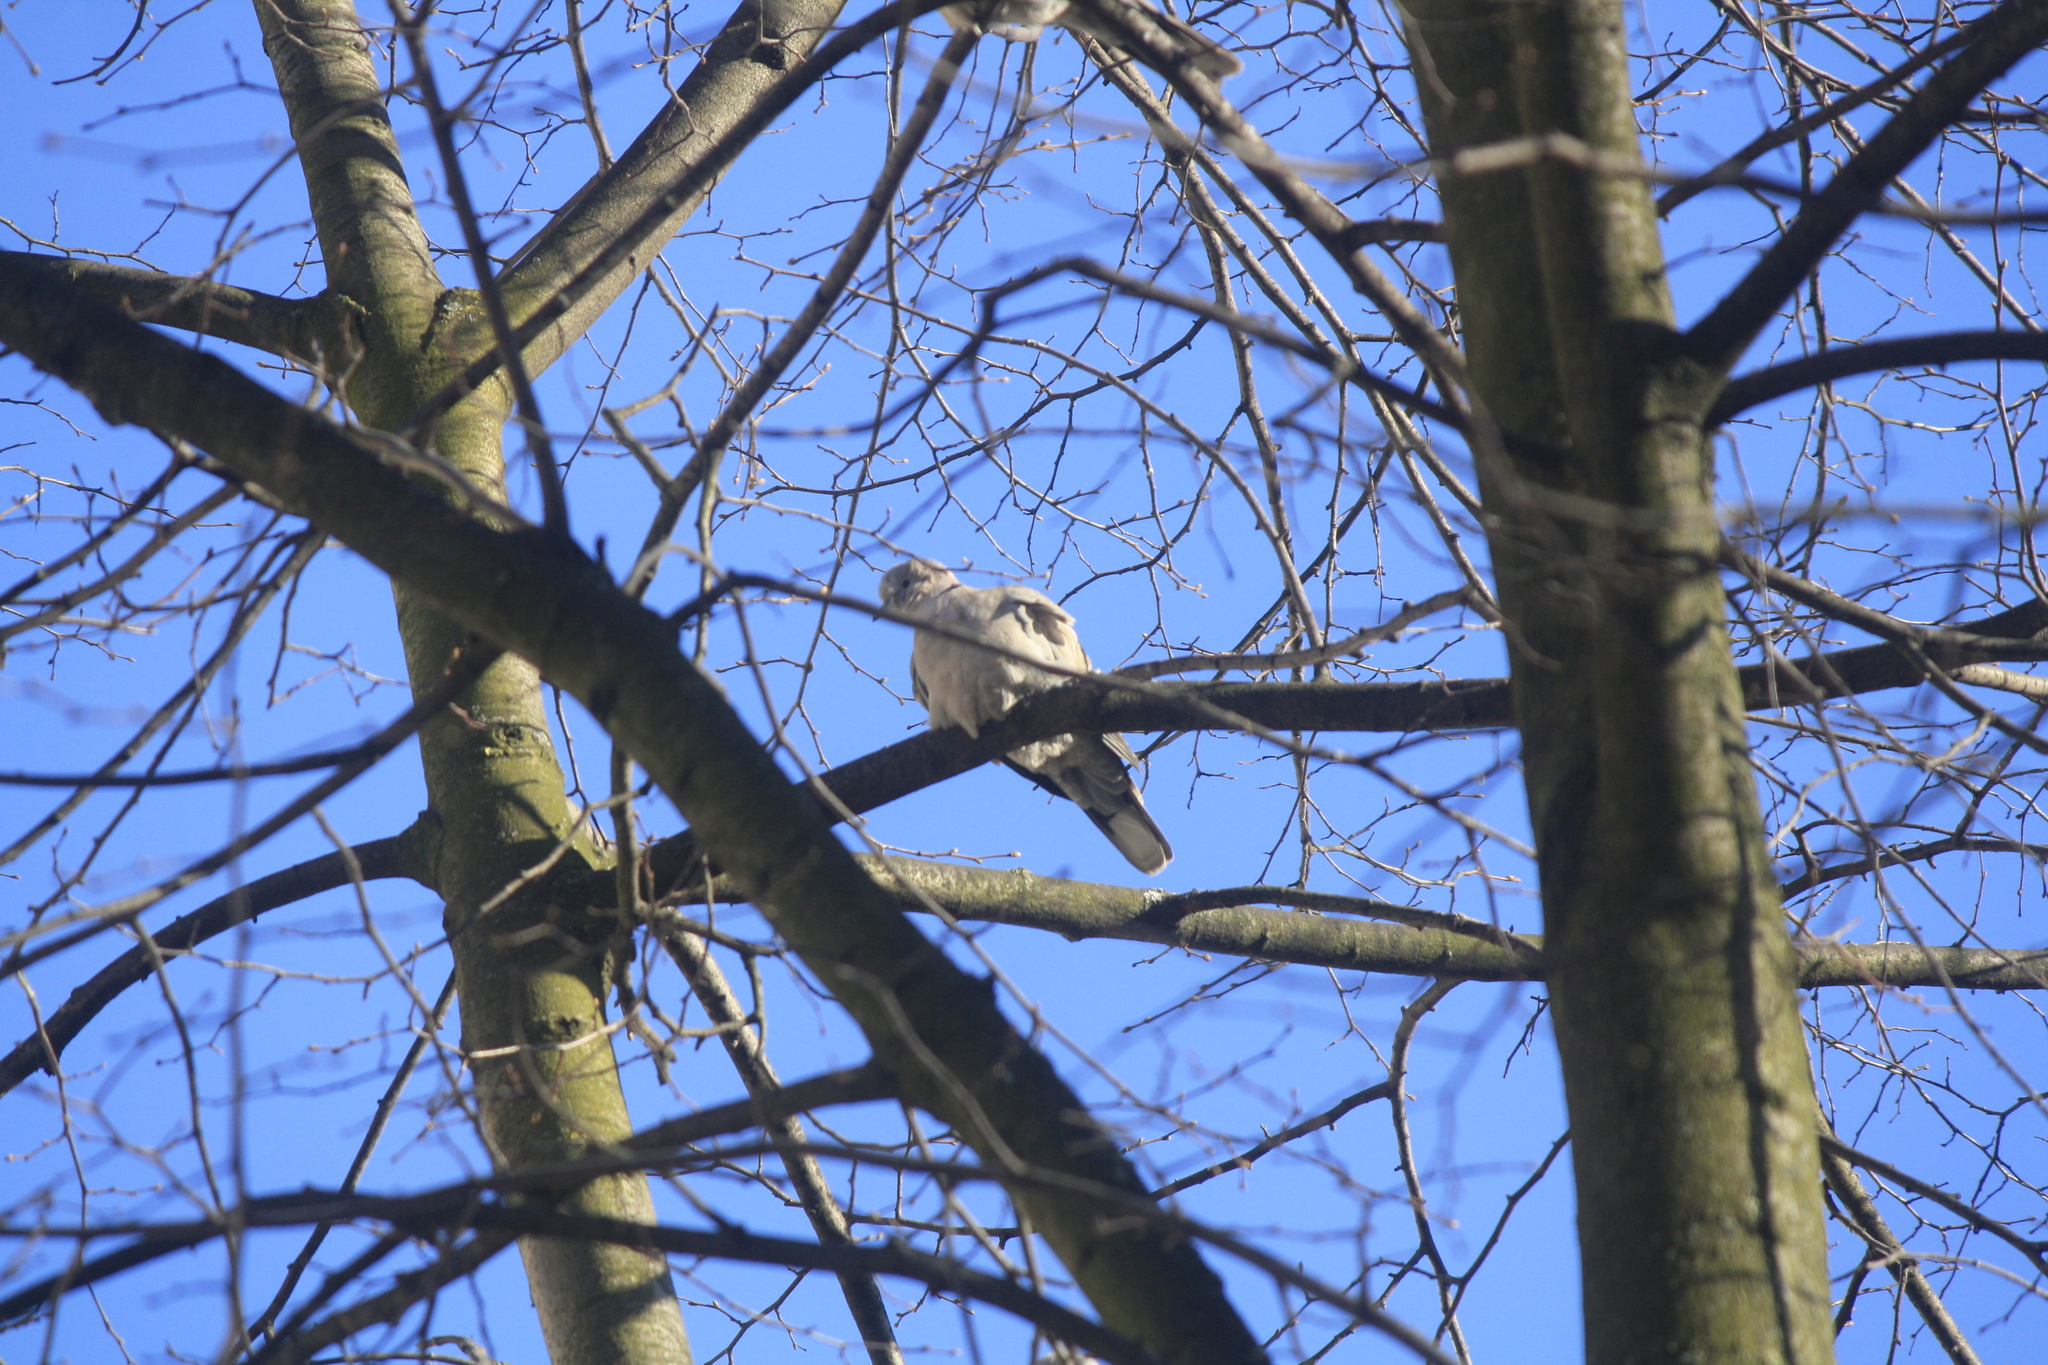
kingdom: Animalia
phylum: Chordata
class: Aves
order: Columbiformes
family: Columbidae
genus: Streptopelia
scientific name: Streptopelia decaocto
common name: Eurasian collared dove
